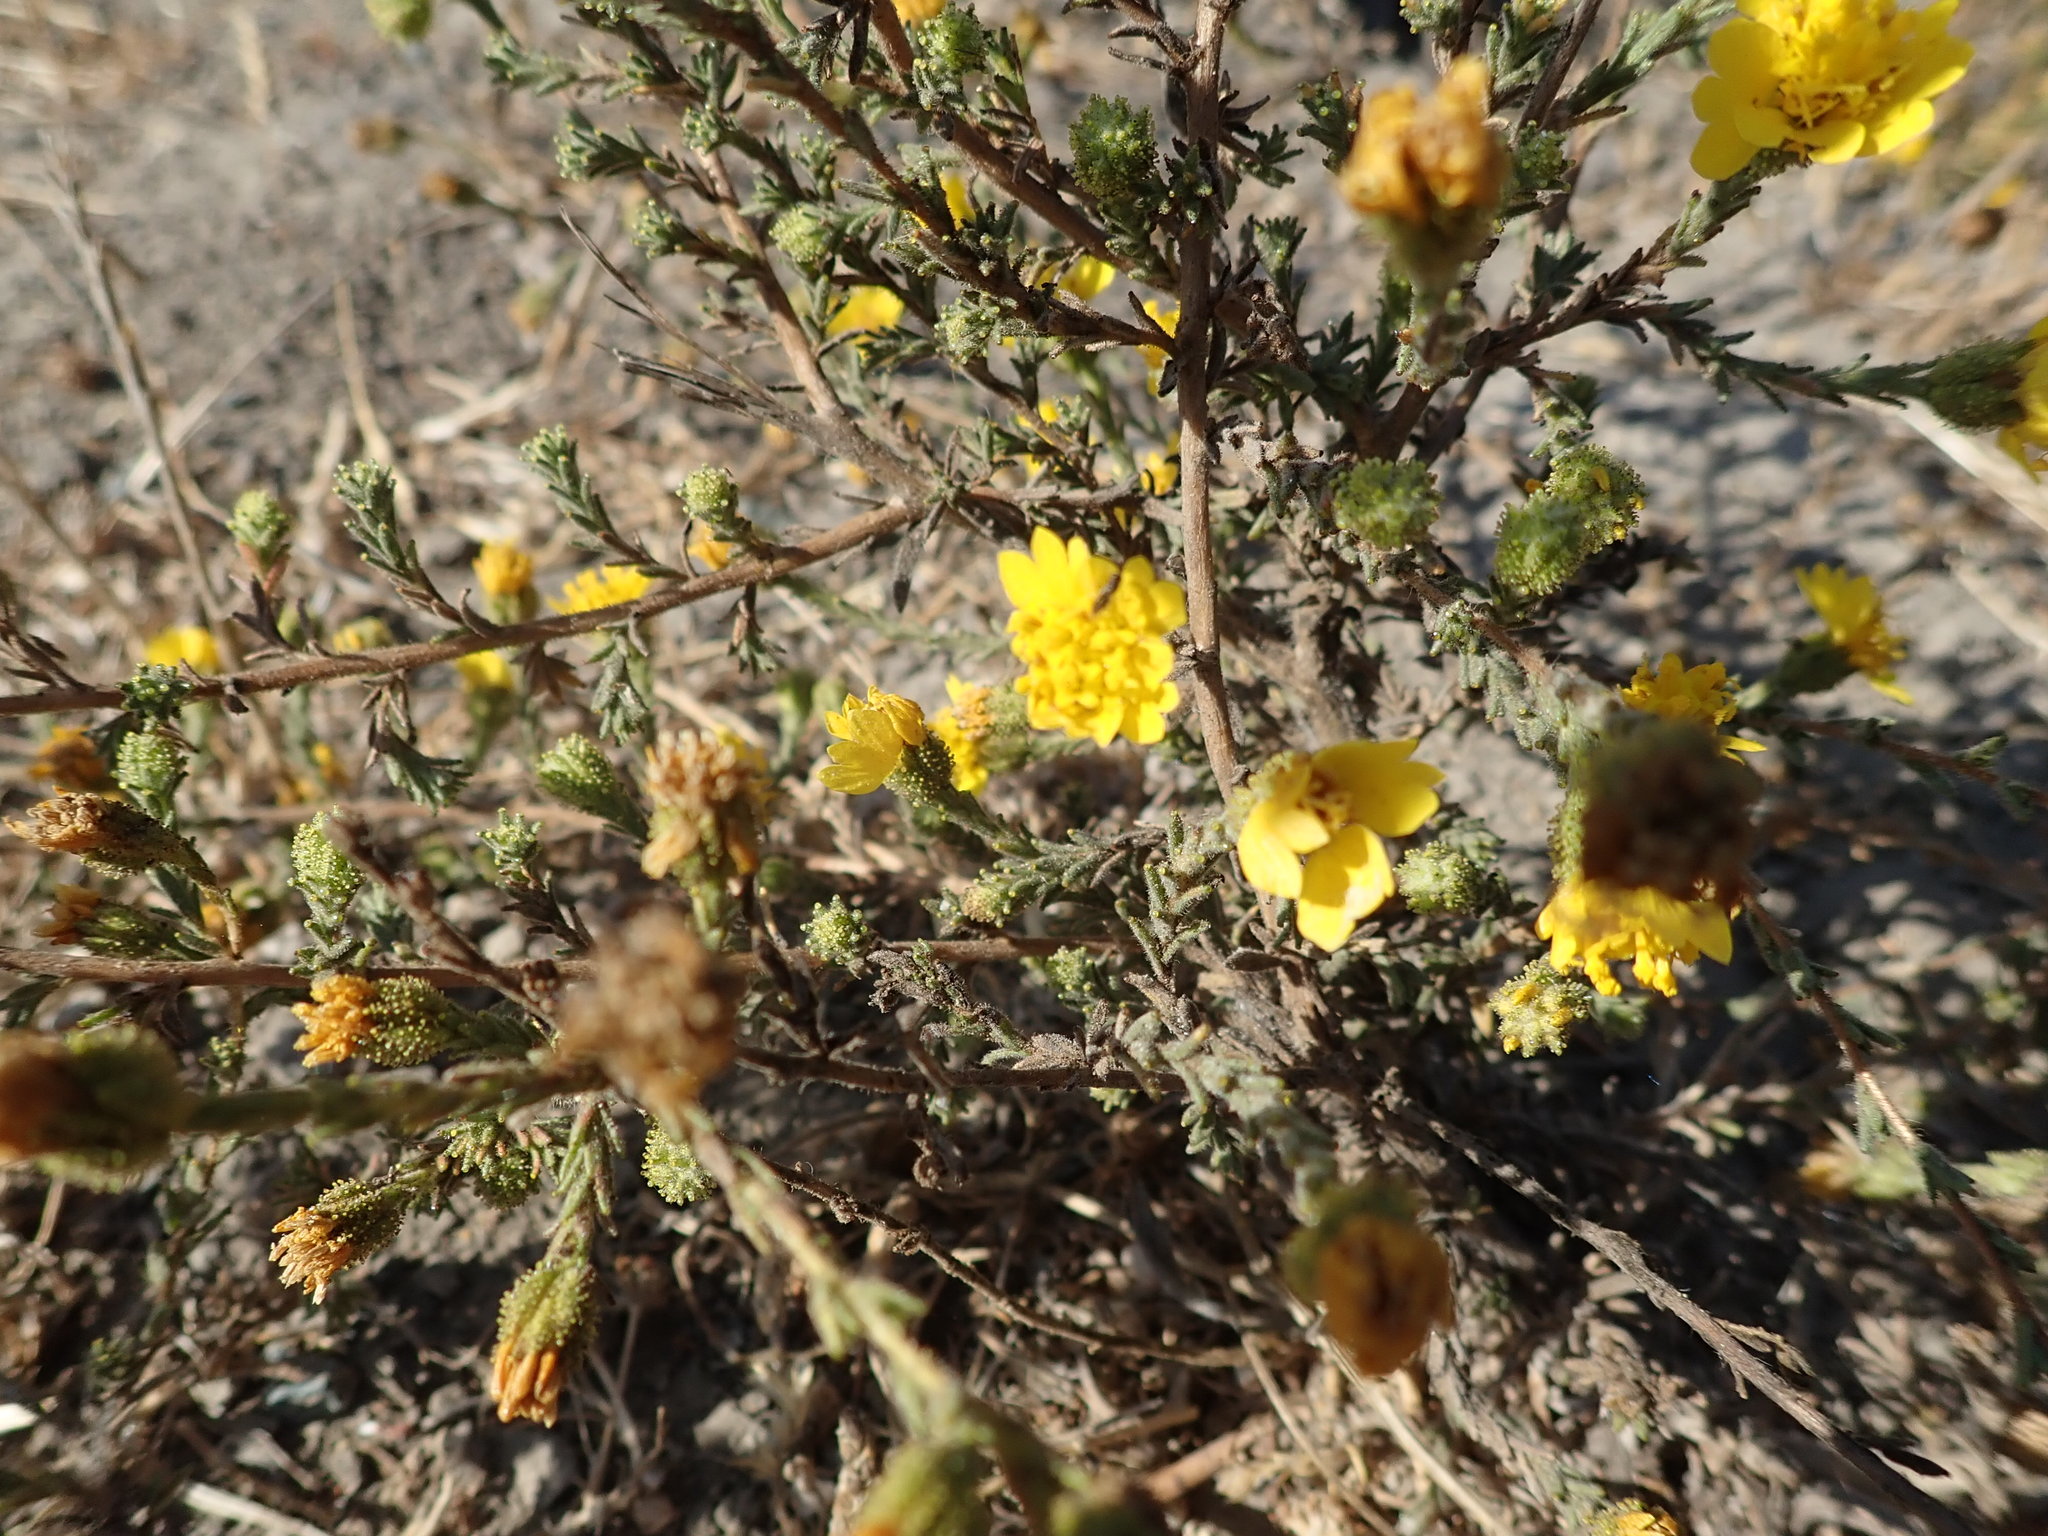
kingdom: Plantae
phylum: Tracheophyta
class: Magnoliopsida
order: Asterales
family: Asteraceae
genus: Holocarpha
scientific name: Holocarpha heermannii
